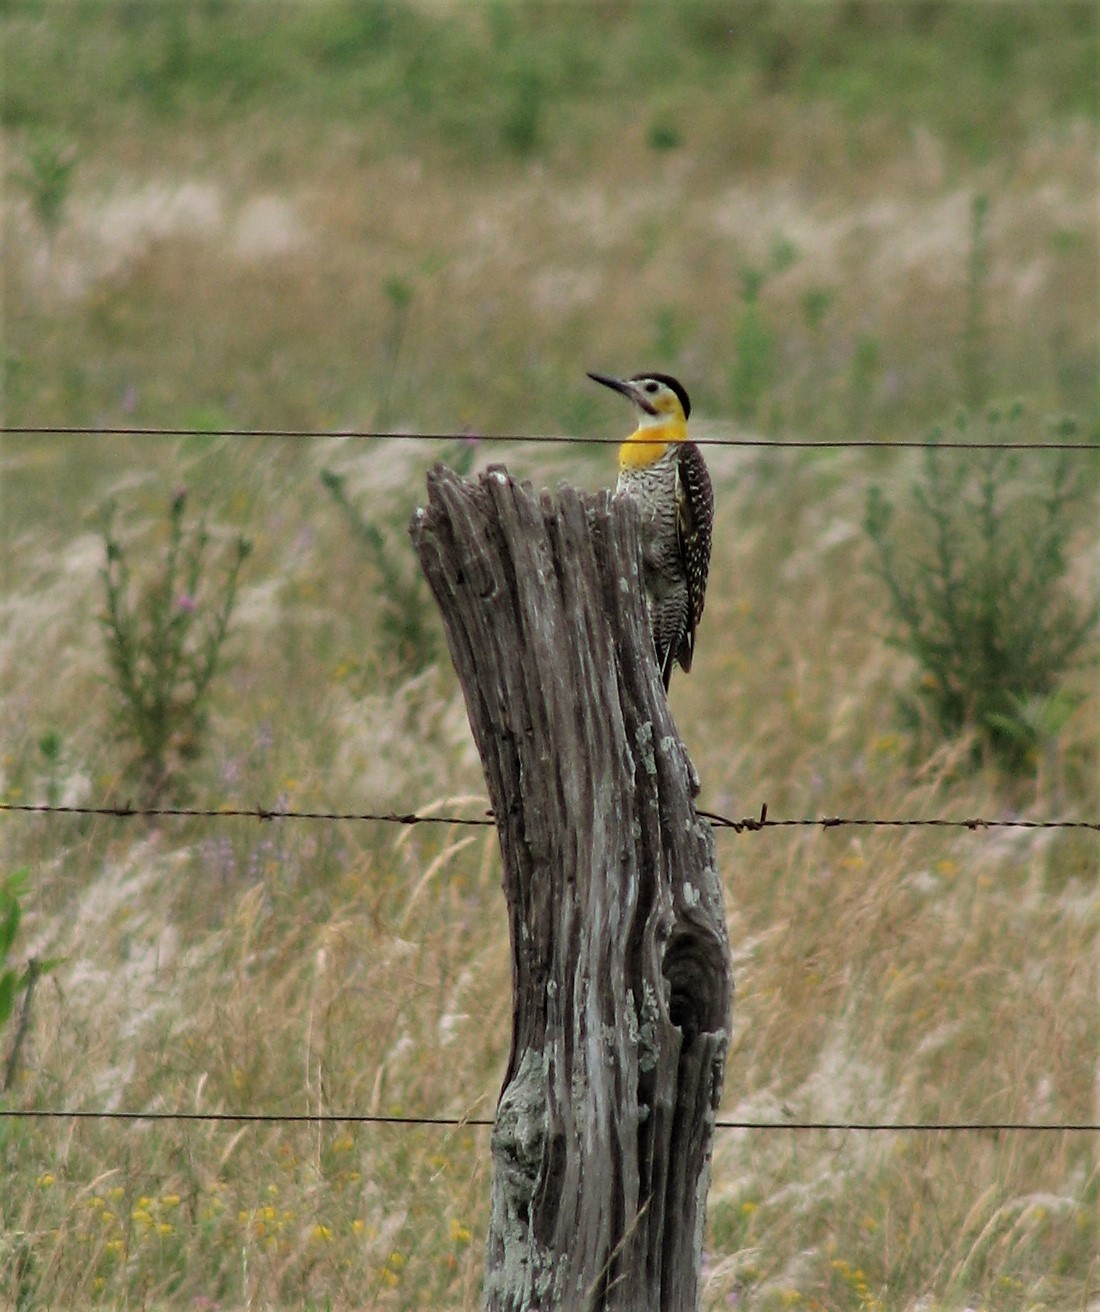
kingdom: Animalia
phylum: Chordata
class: Aves
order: Piciformes
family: Picidae
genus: Colaptes
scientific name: Colaptes campestris
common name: Campo flicker
